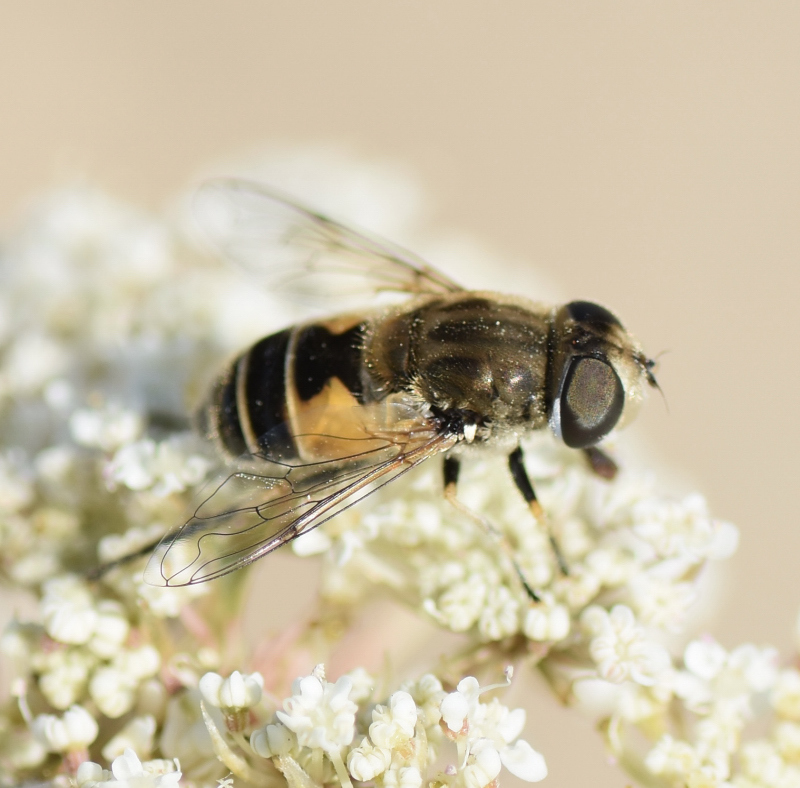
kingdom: Animalia
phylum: Arthropoda
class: Insecta
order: Diptera
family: Syrphidae
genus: Eristalis
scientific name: Eristalis arbustorum
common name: Hover fly
